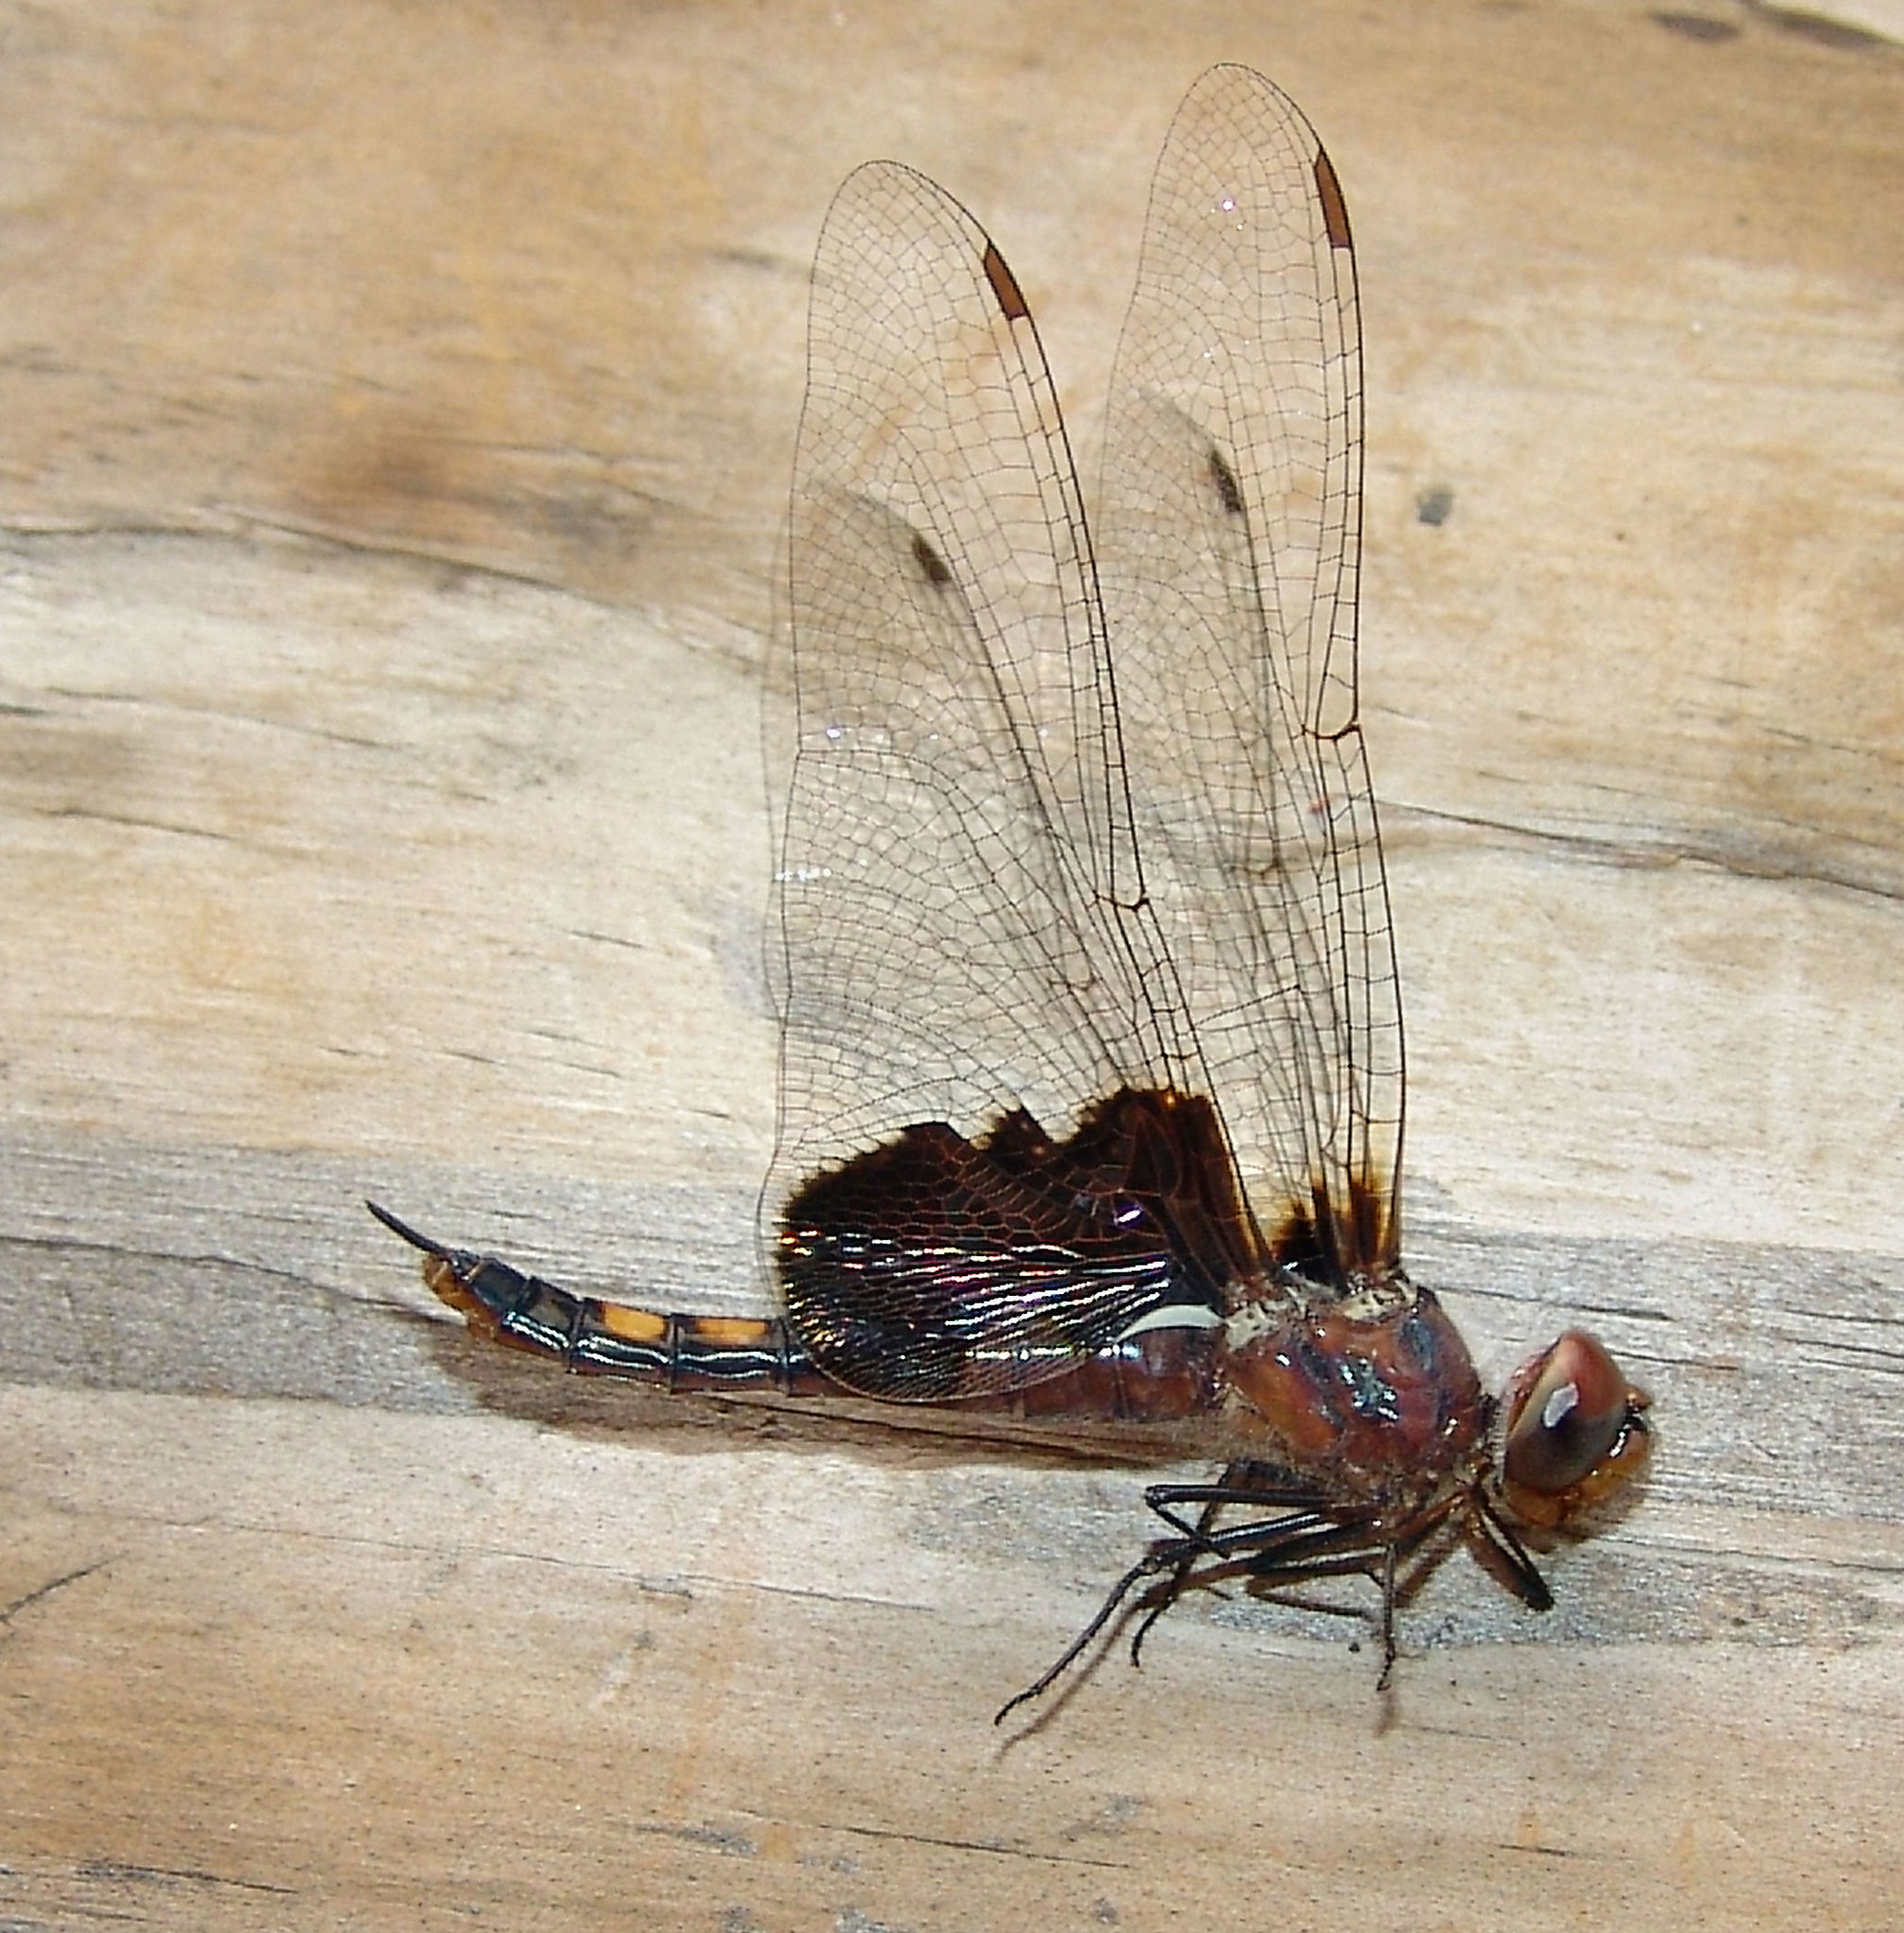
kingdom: Animalia
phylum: Arthropoda
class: Insecta
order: Odonata
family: Libellulidae
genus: Tramea
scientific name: Tramea lacerata
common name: Black saddlebags
